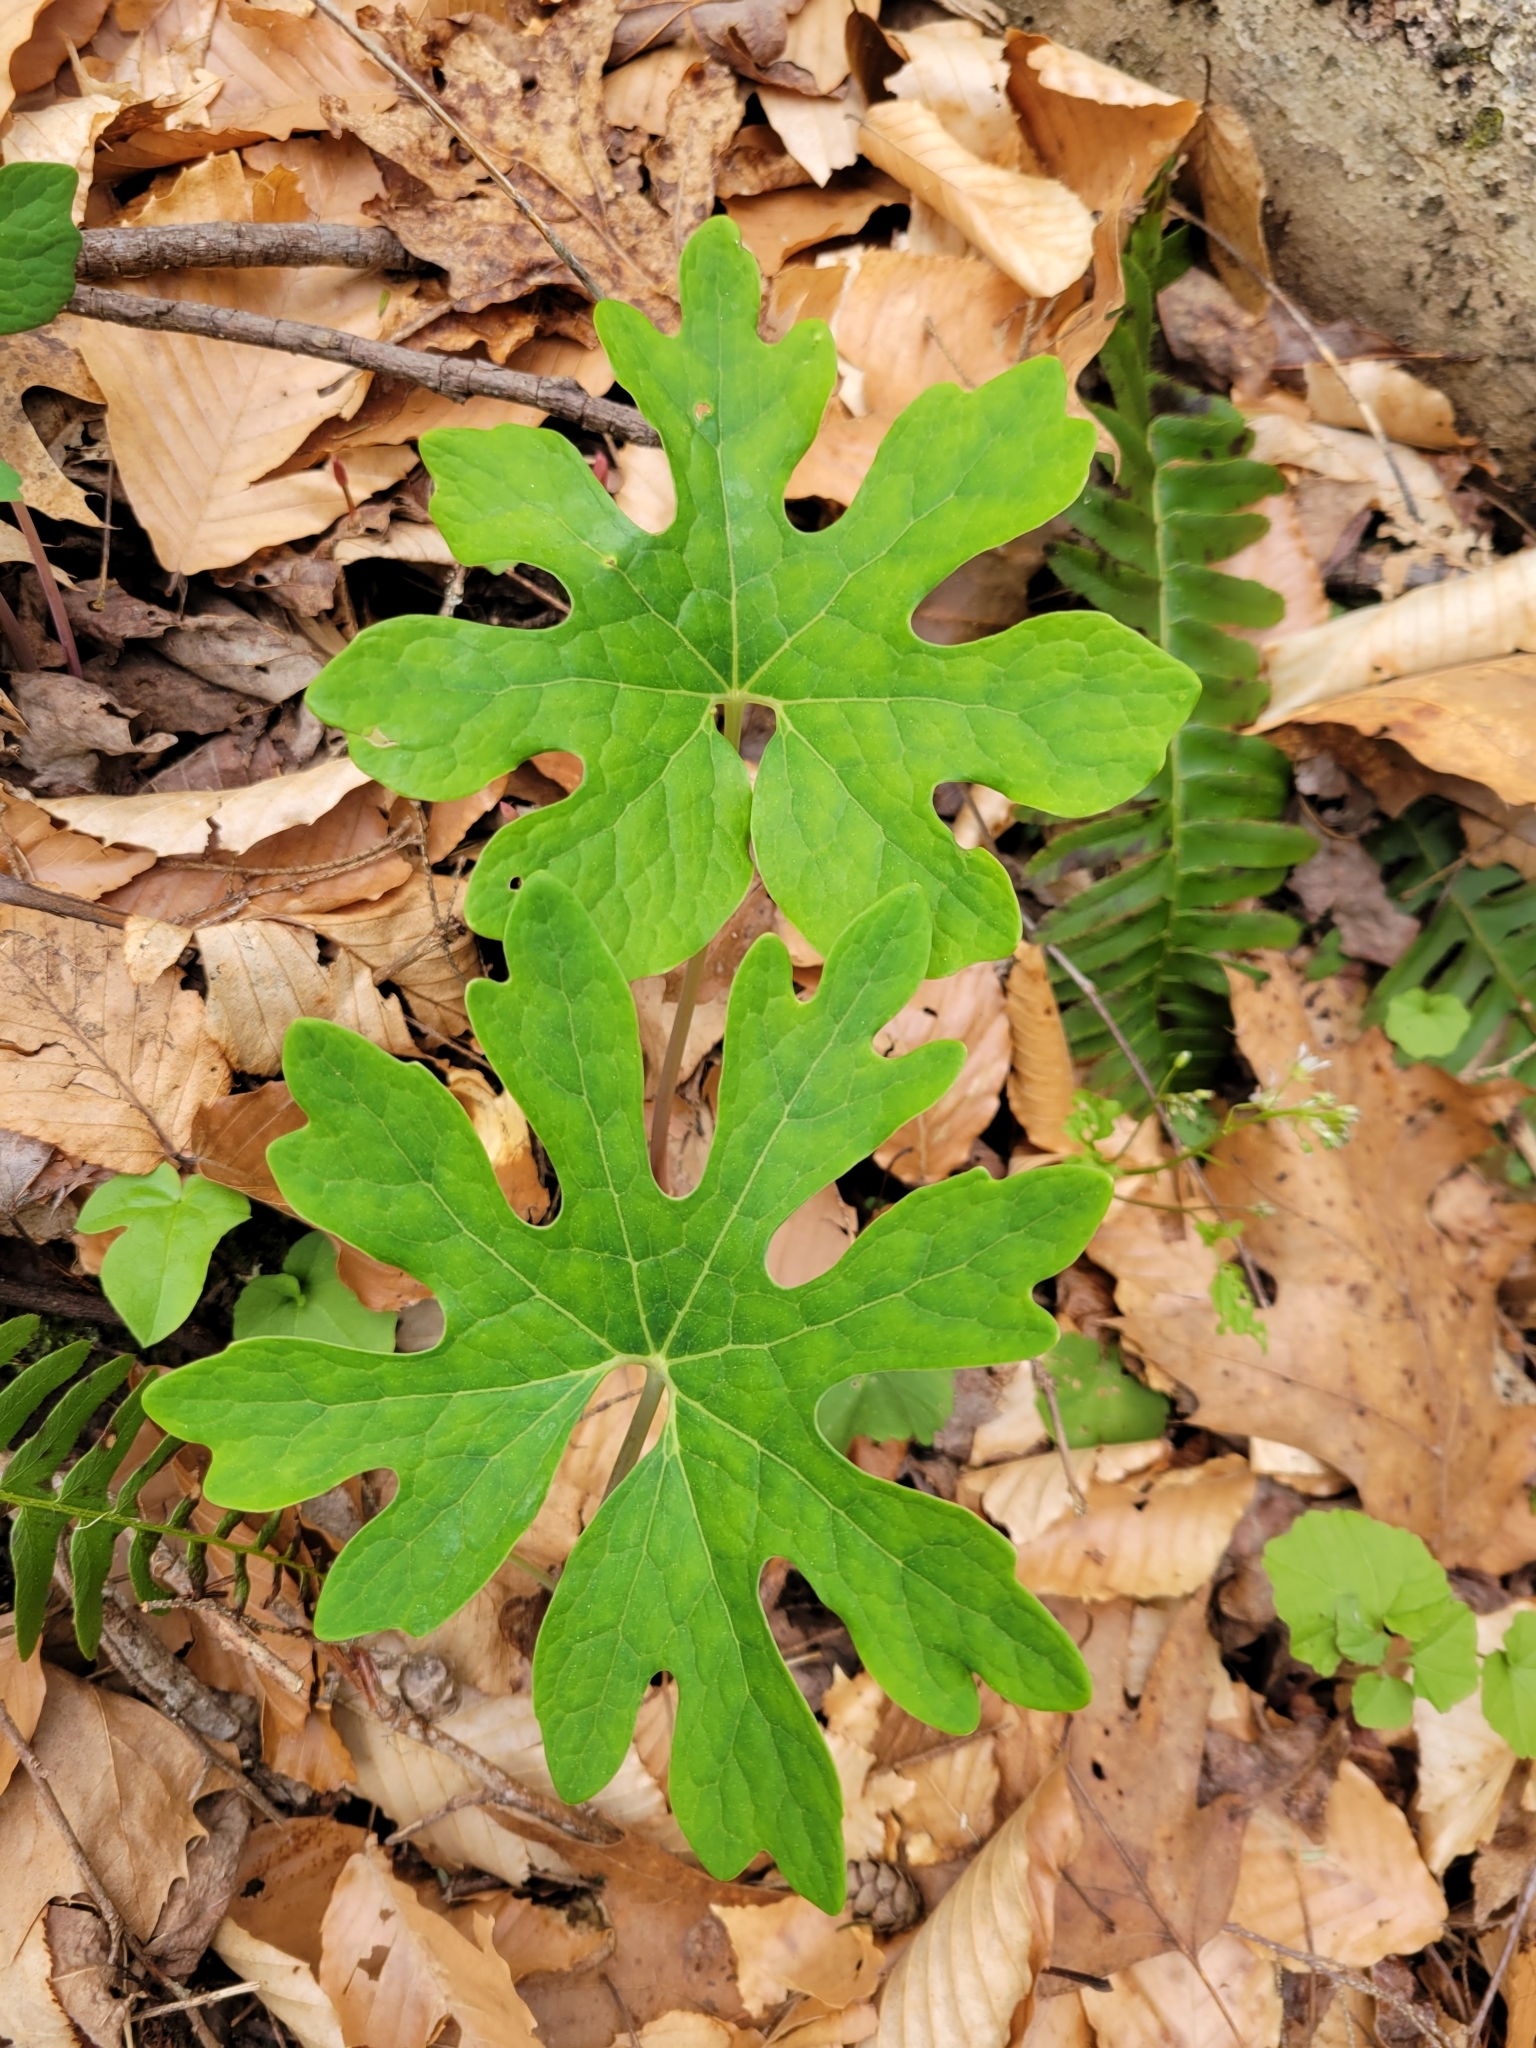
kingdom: Plantae
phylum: Tracheophyta
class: Magnoliopsida
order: Ranunculales
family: Papaveraceae
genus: Sanguinaria
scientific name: Sanguinaria canadensis
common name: Bloodroot
